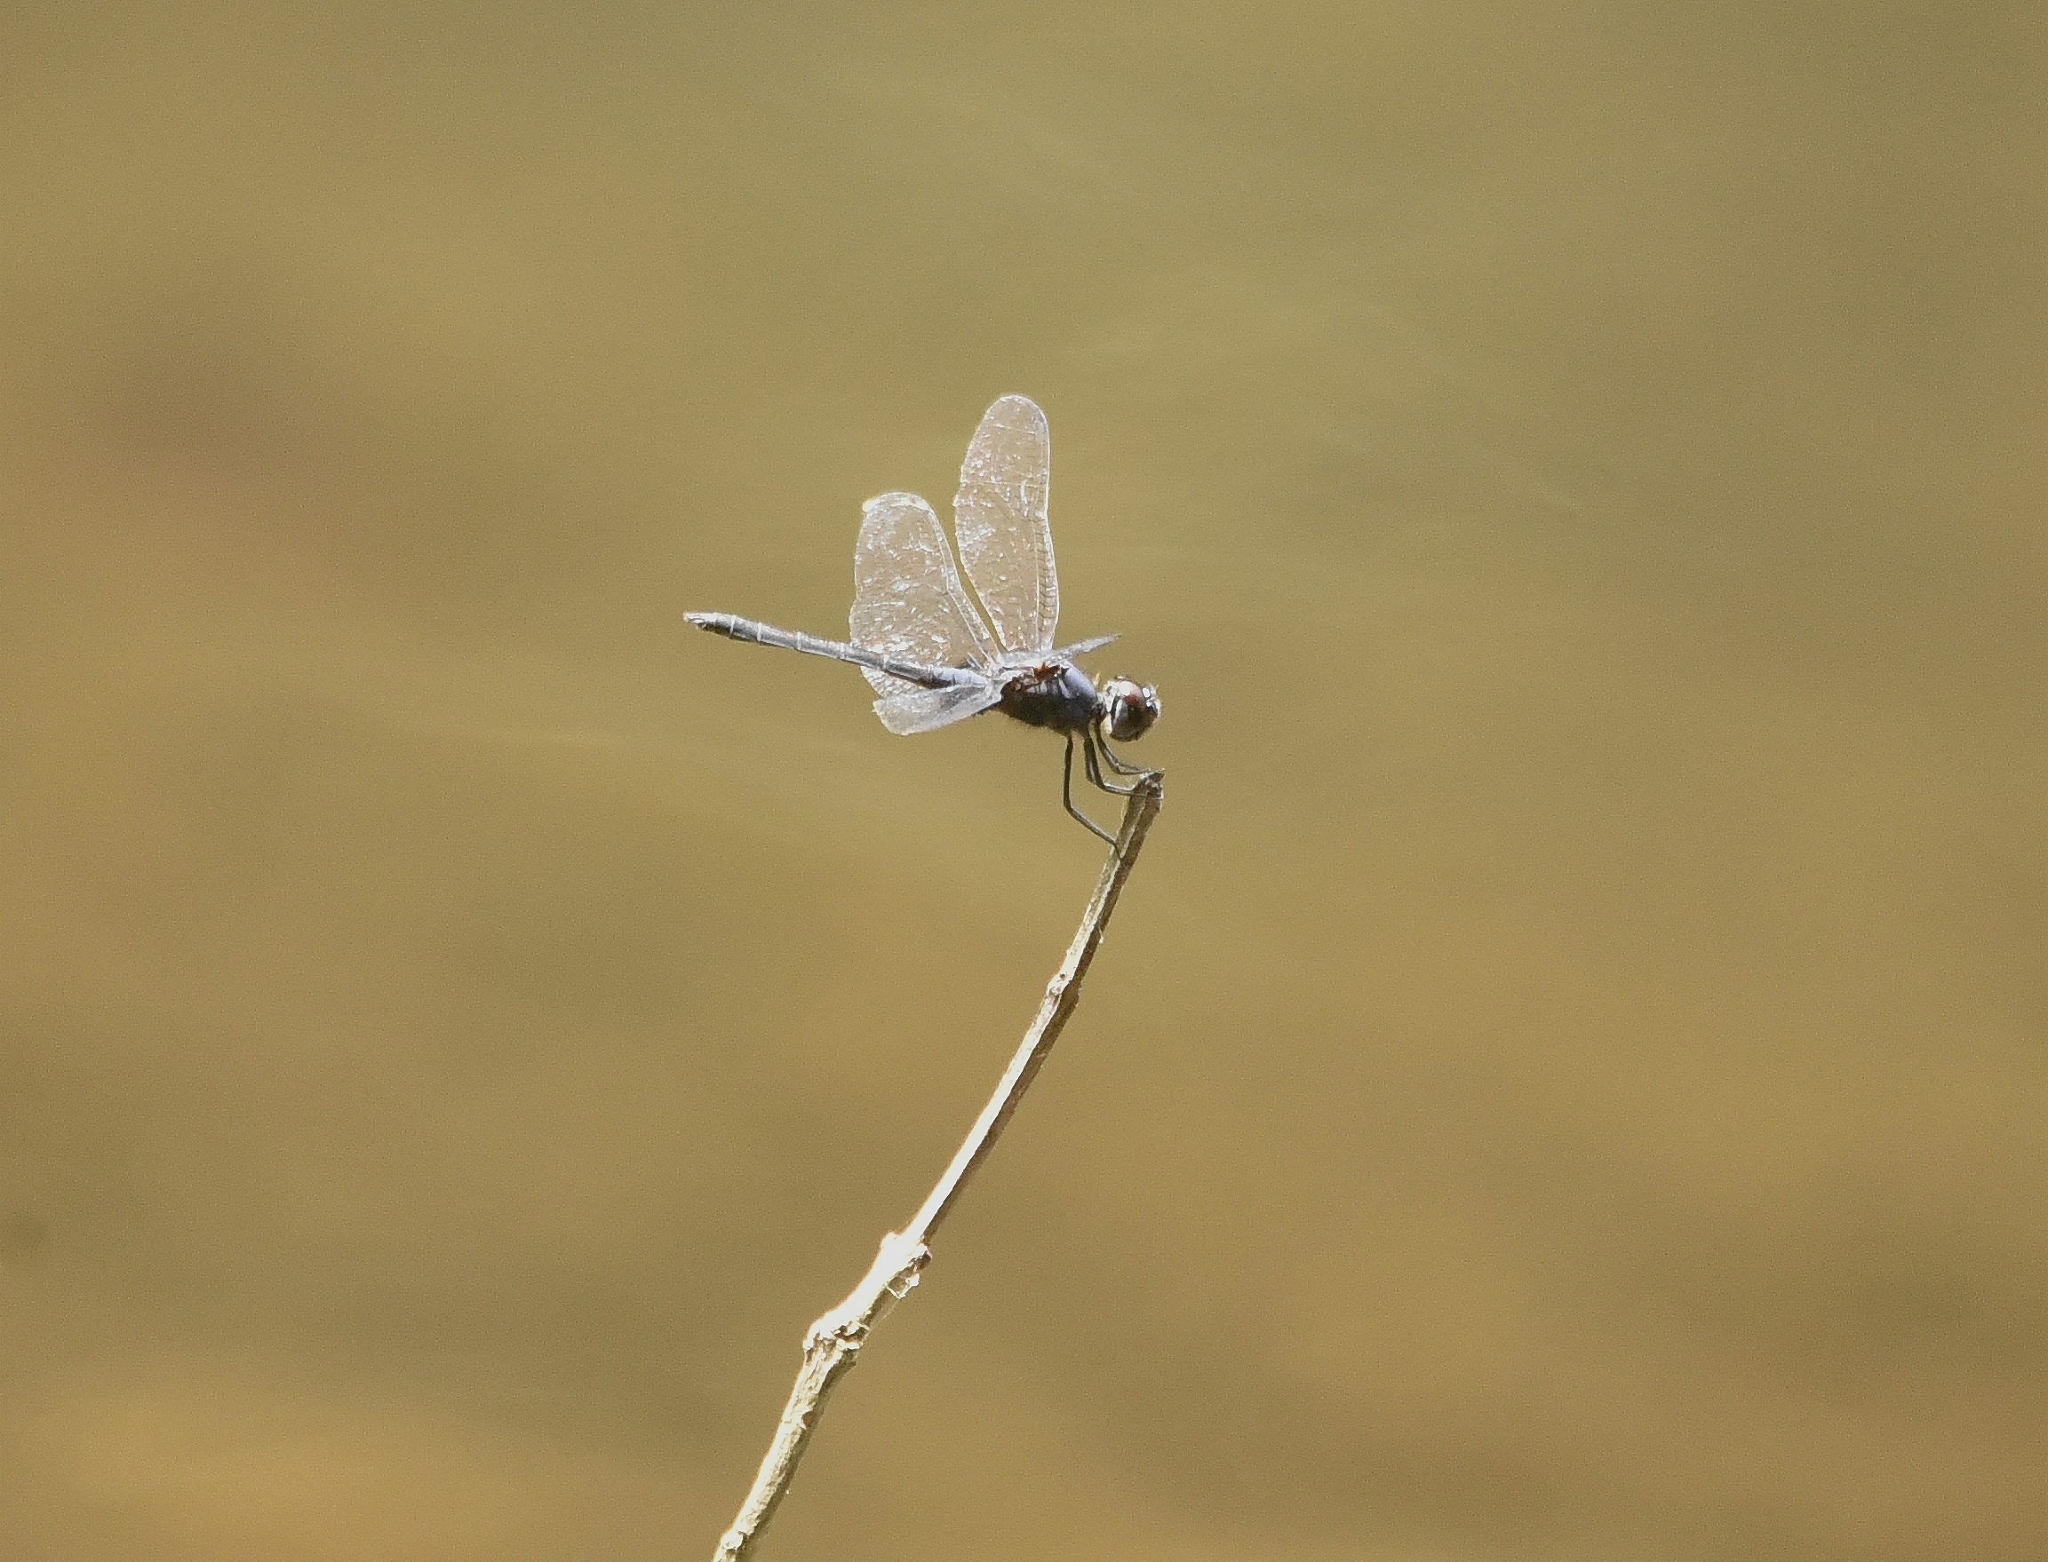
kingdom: Animalia
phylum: Arthropoda
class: Insecta
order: Odonata
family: Libellulidae
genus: Trithemis
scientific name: Trithemis festiva
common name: Indigo dropwing
